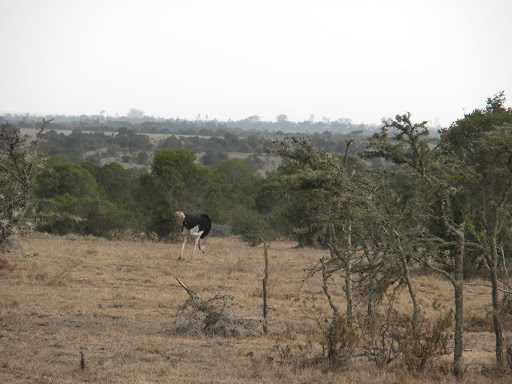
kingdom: Animalia
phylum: Chordata
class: Aves
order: Struthioniformes
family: Struthionidae
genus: Struthio
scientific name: Struthio camelus
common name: Common ostrich
